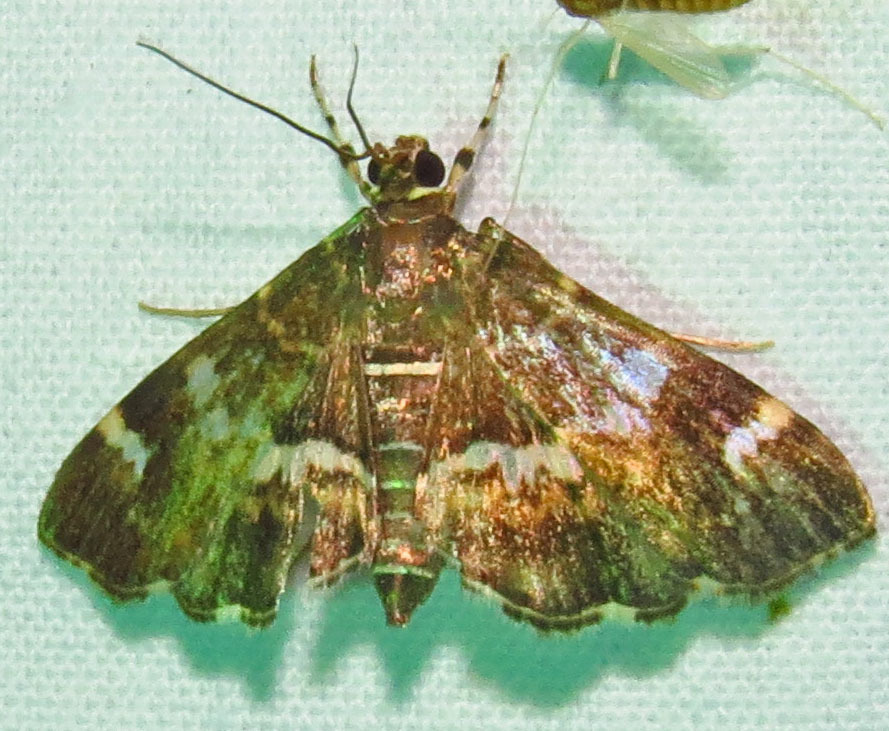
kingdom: Animalia
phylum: Arthropoda
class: Insecta
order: Lepidoptera
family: Crambidae
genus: Hymenia
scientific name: Hymenia perspectalis
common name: Spotted beet webworm
